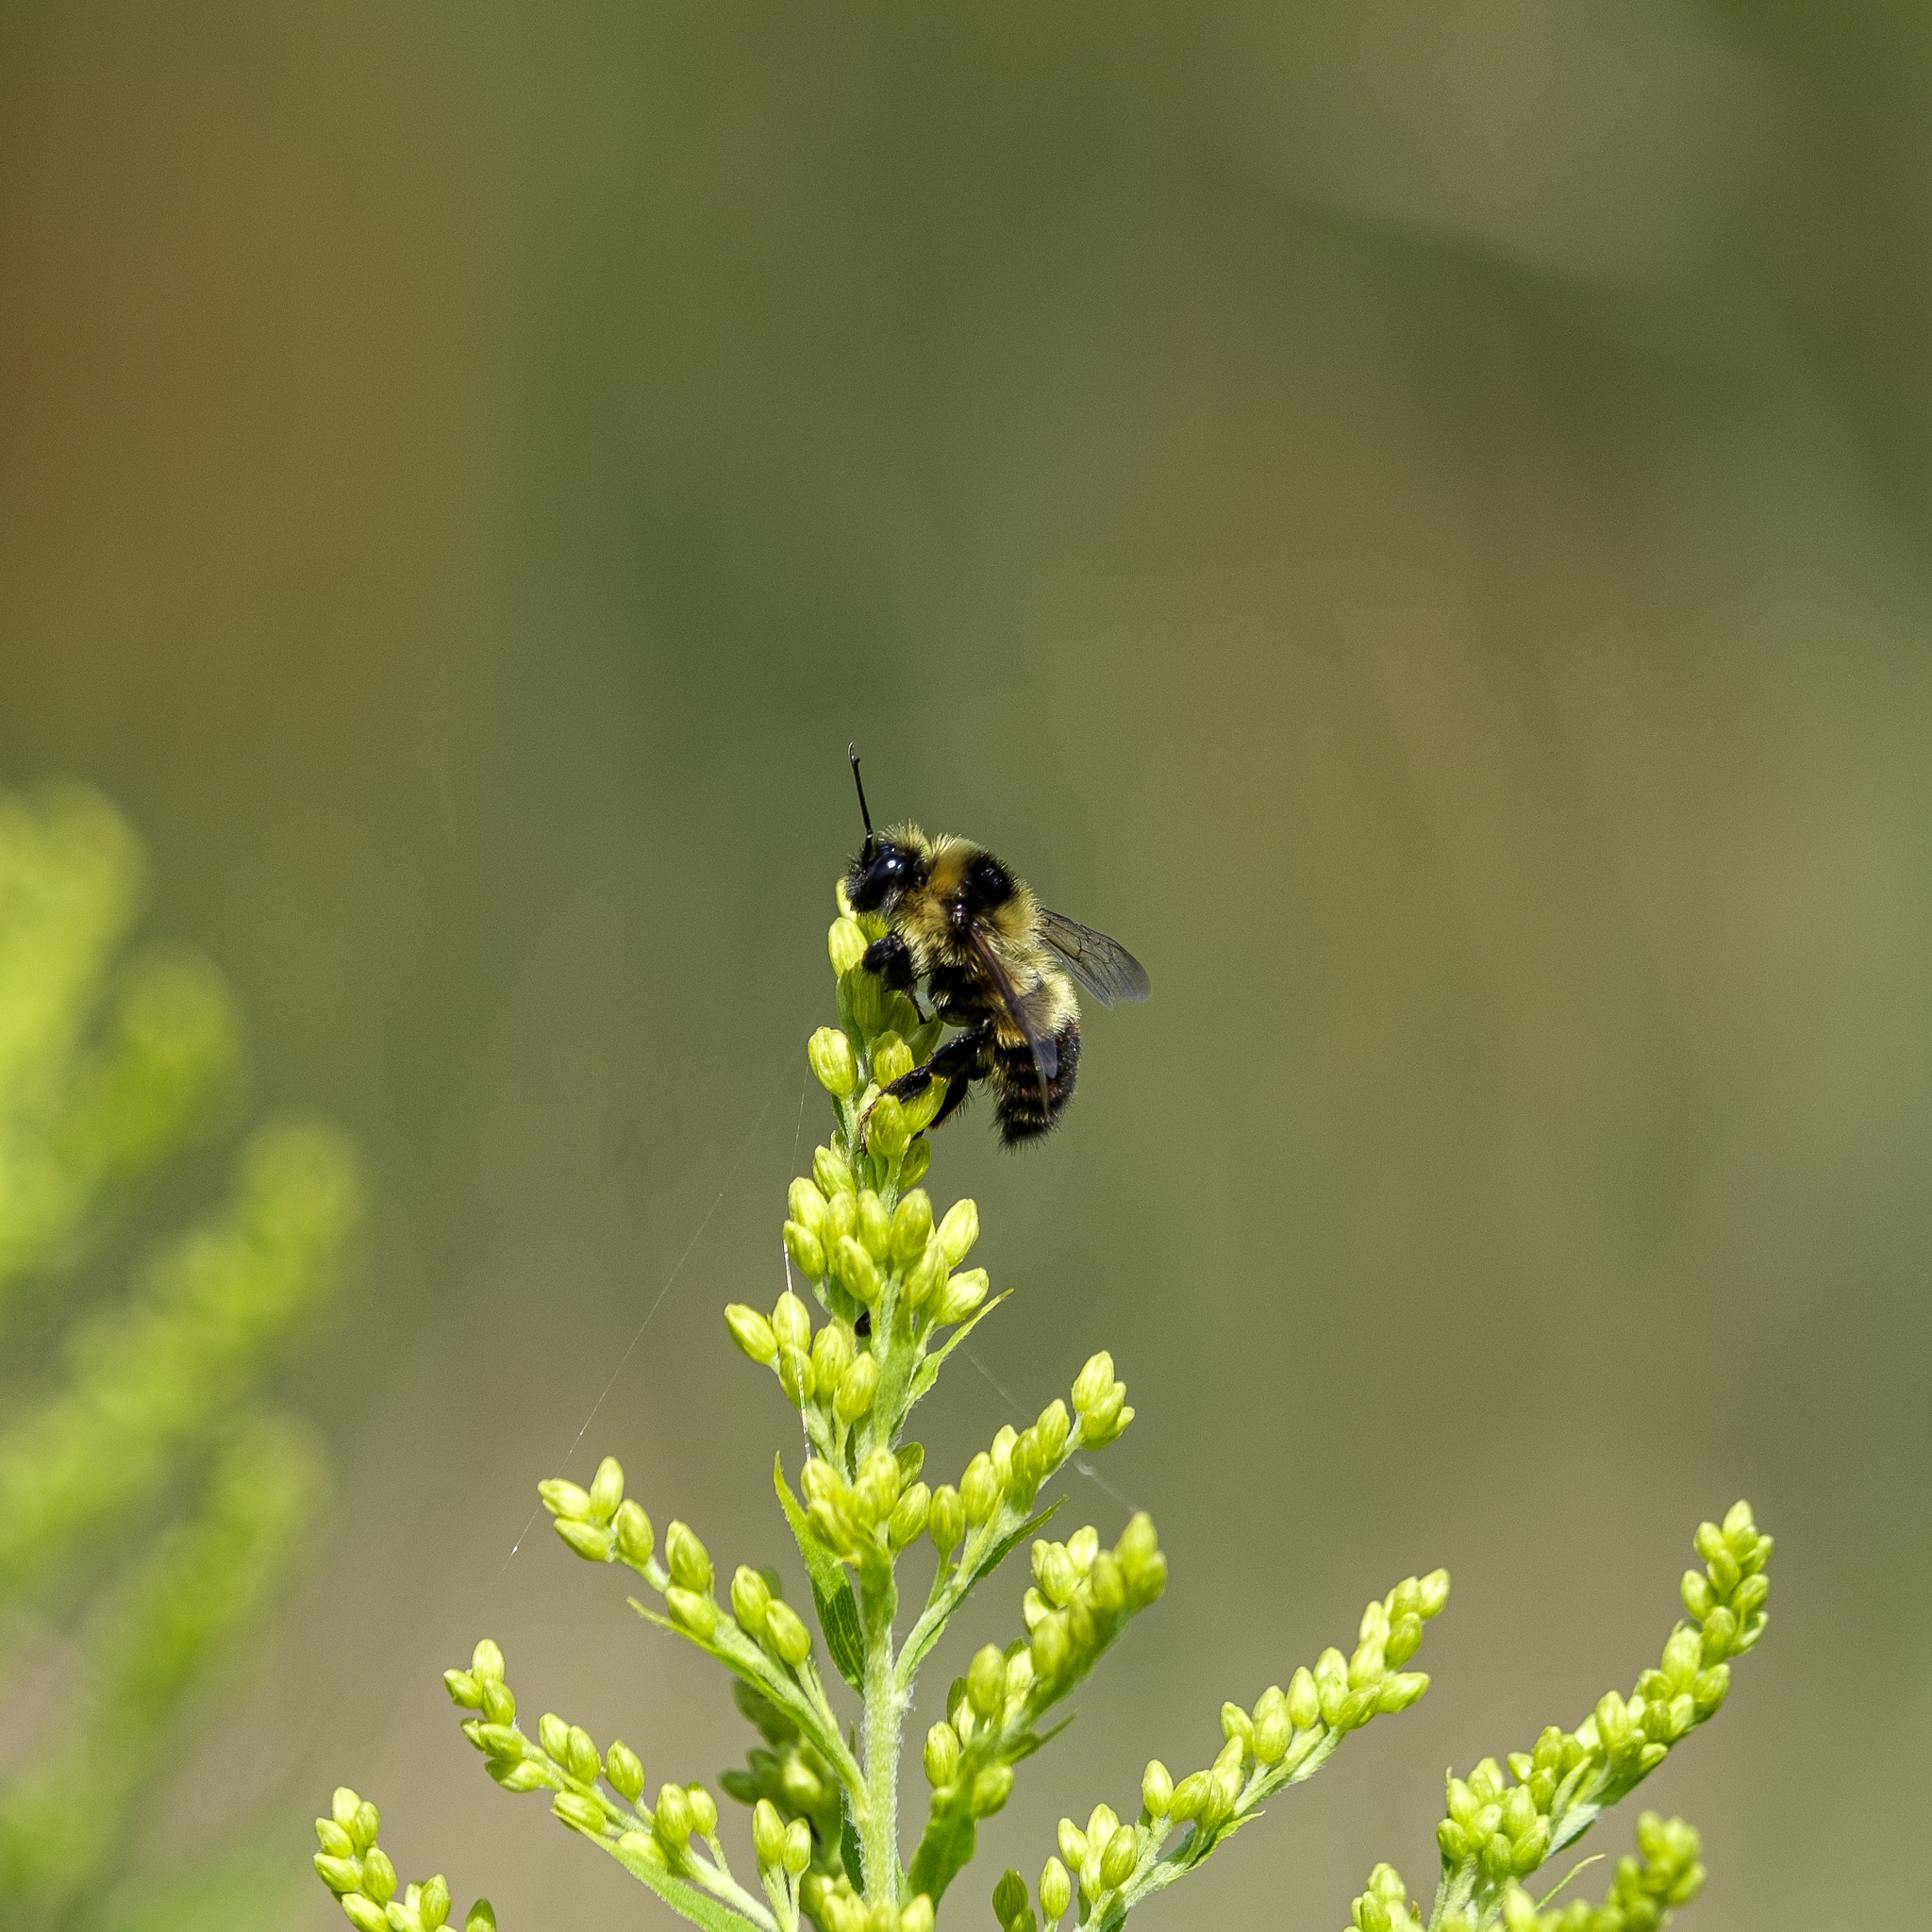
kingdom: Animalia
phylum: Arthropoda
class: Insecta
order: Hymenoptera
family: Apidae
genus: Bombus
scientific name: Bombus rufocinctus
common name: Red-belted bumble bee
